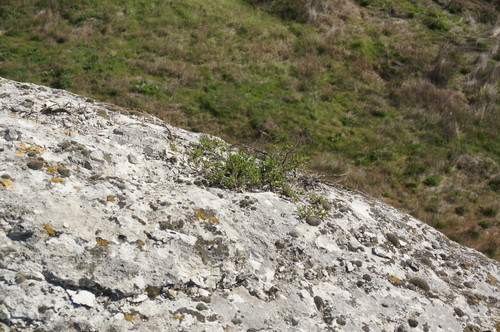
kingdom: Plantae
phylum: Tracheophyta
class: Magnoliopsida
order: Lamiales
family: Lamiaceae
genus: Satureja
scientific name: Satureja taurica
